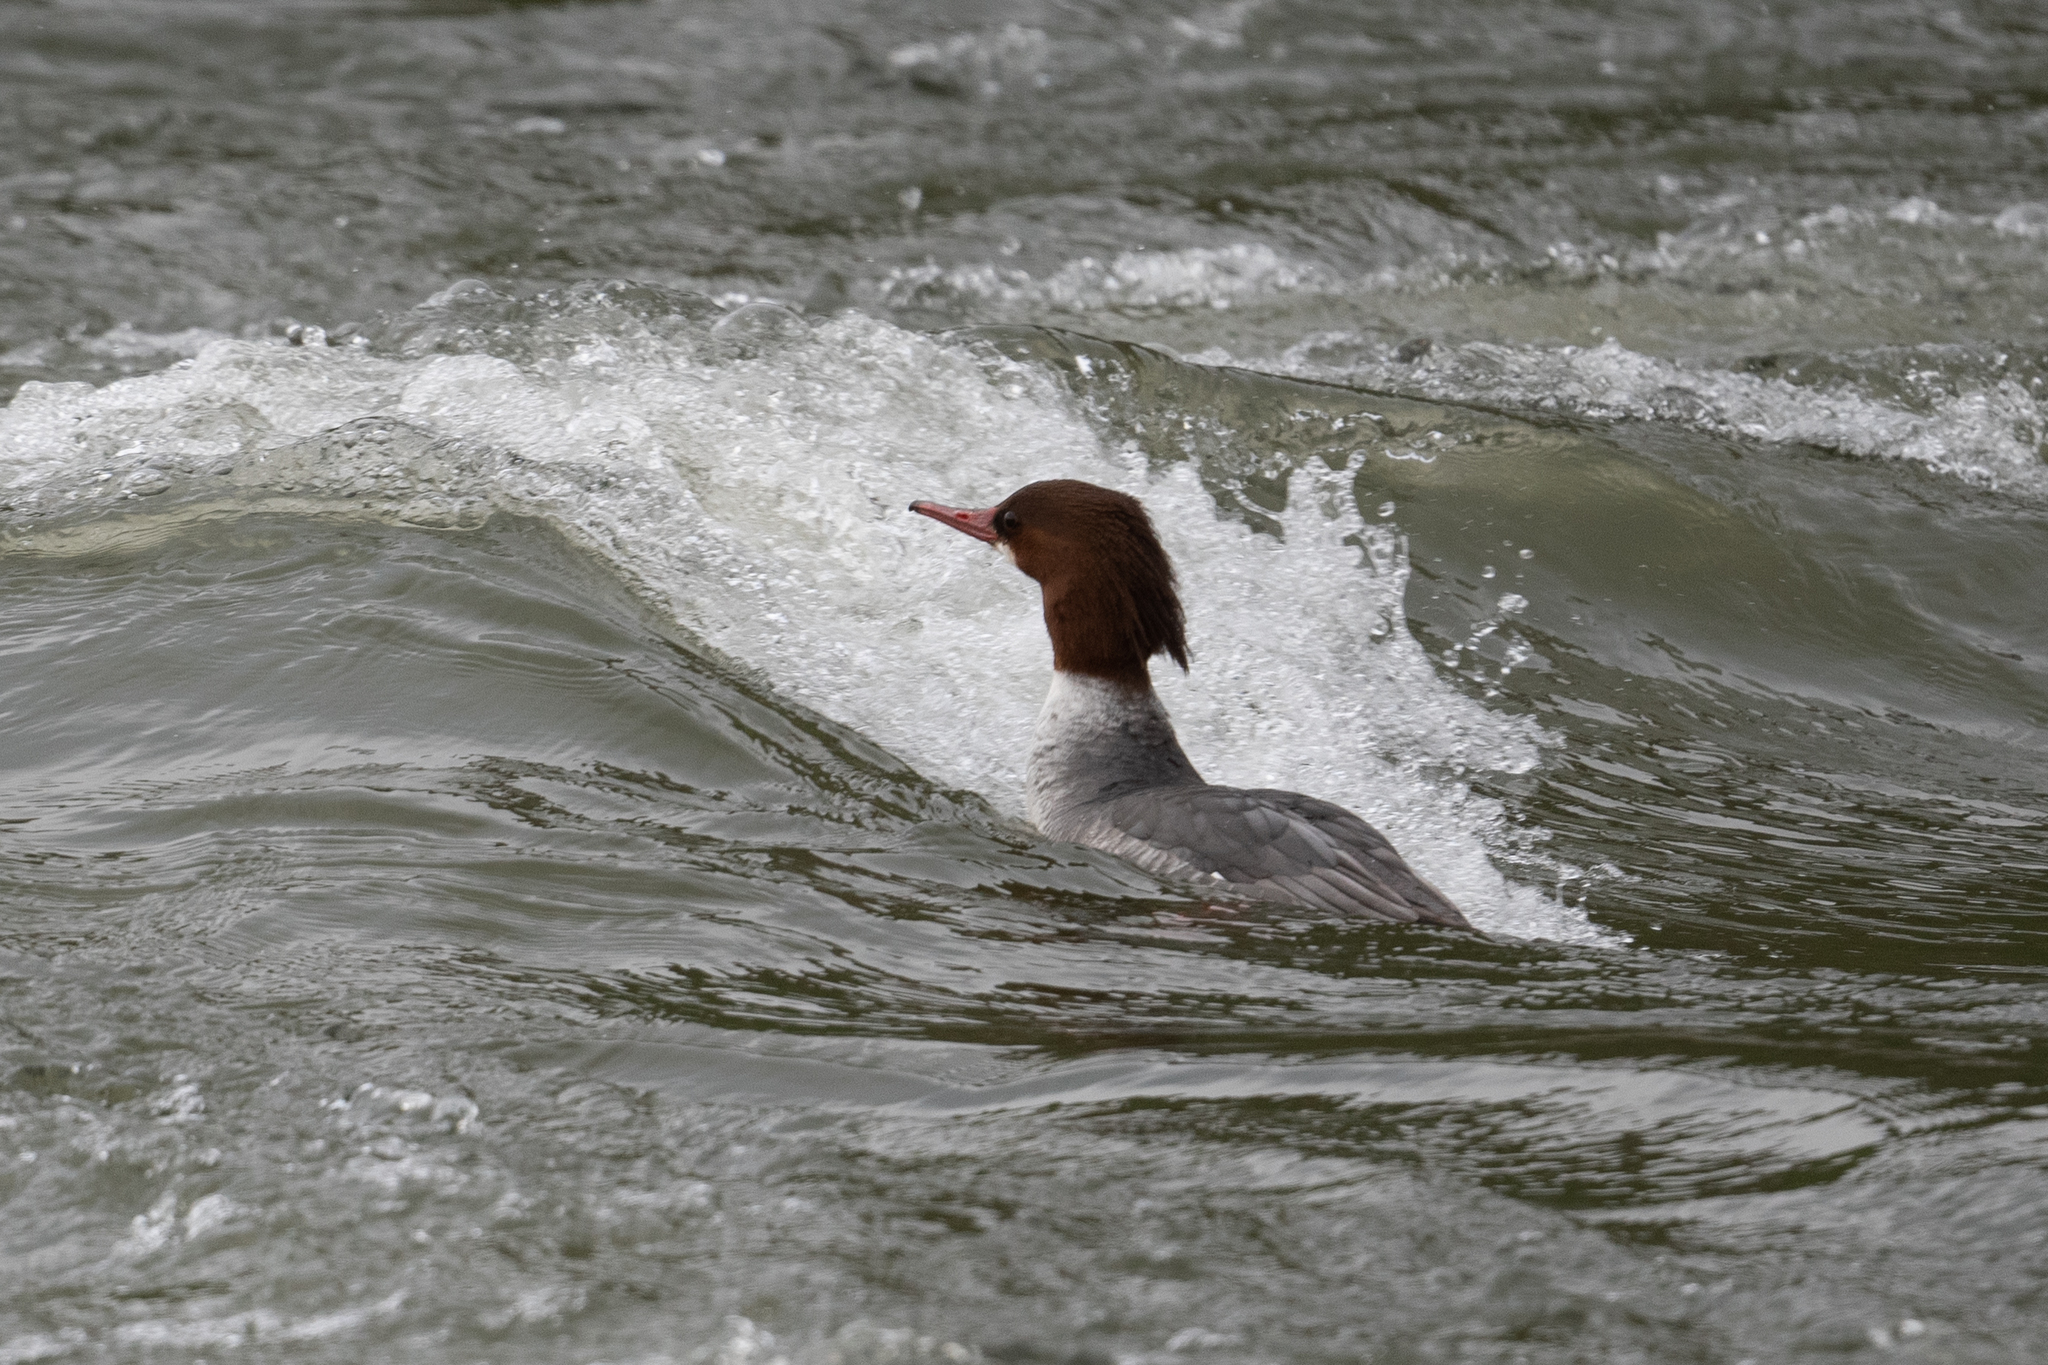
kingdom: Animalia
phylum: Chordata
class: Aves
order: Anseriformes
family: Anatidae
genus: Mergus
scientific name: Mergus merganser
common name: Common merganser
